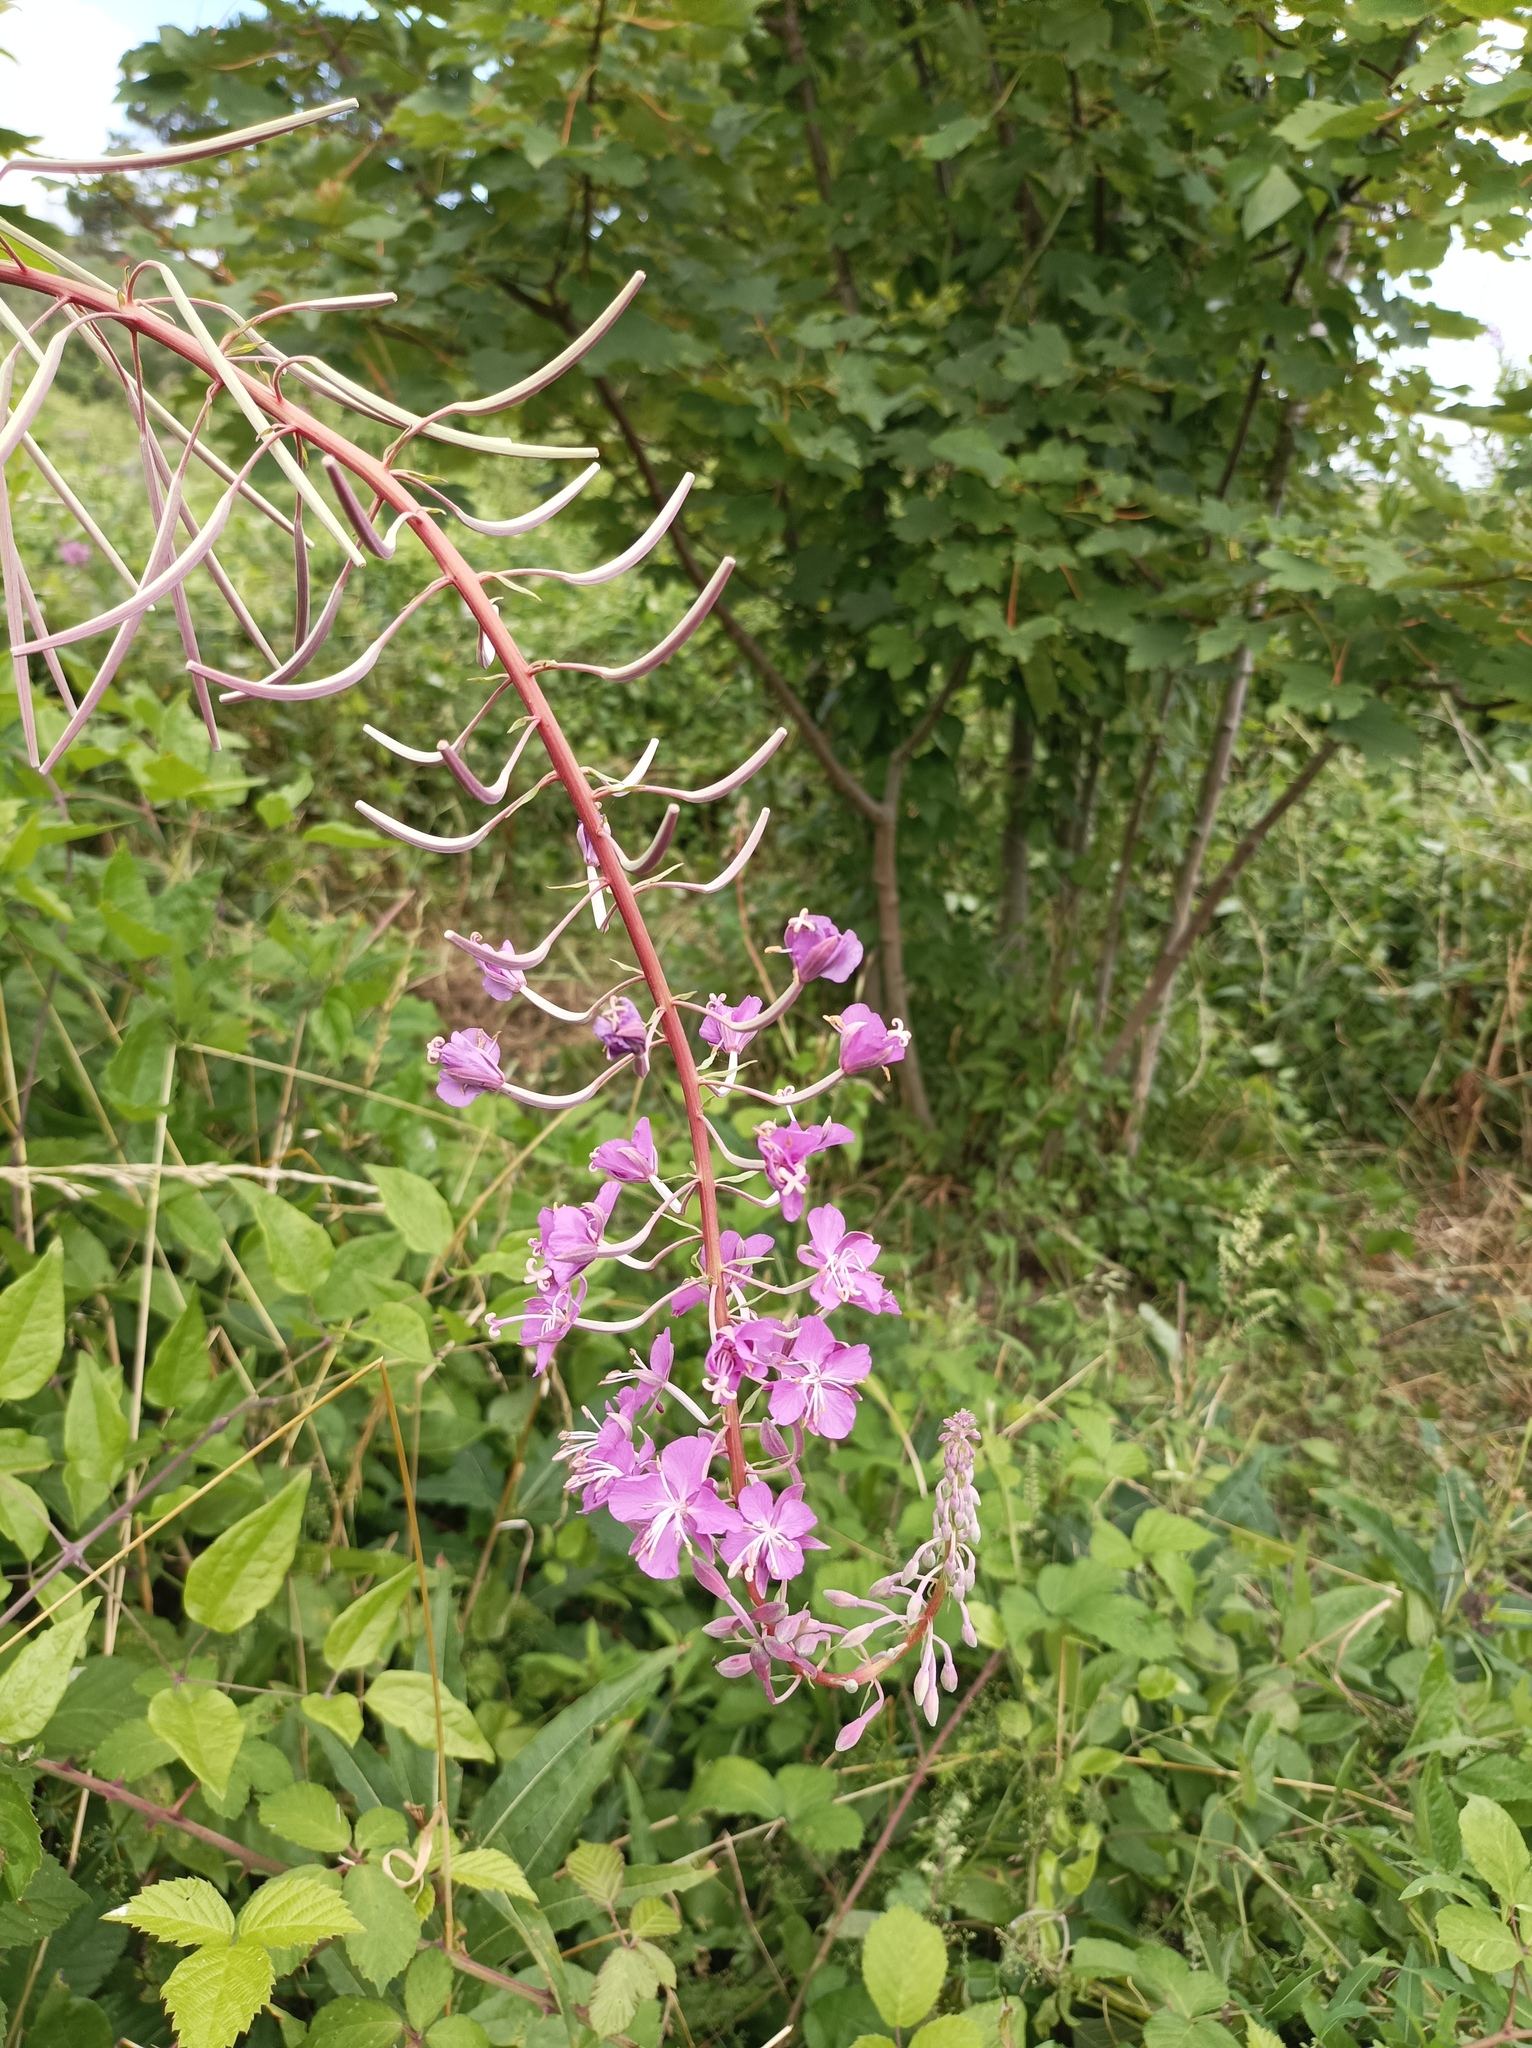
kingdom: Plantae
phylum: Tracheophyta
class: Magnoliopsida
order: Myrtales
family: Onagraceae
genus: Chamaenerion
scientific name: Chamaenerion angustifolium
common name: Fireweed
